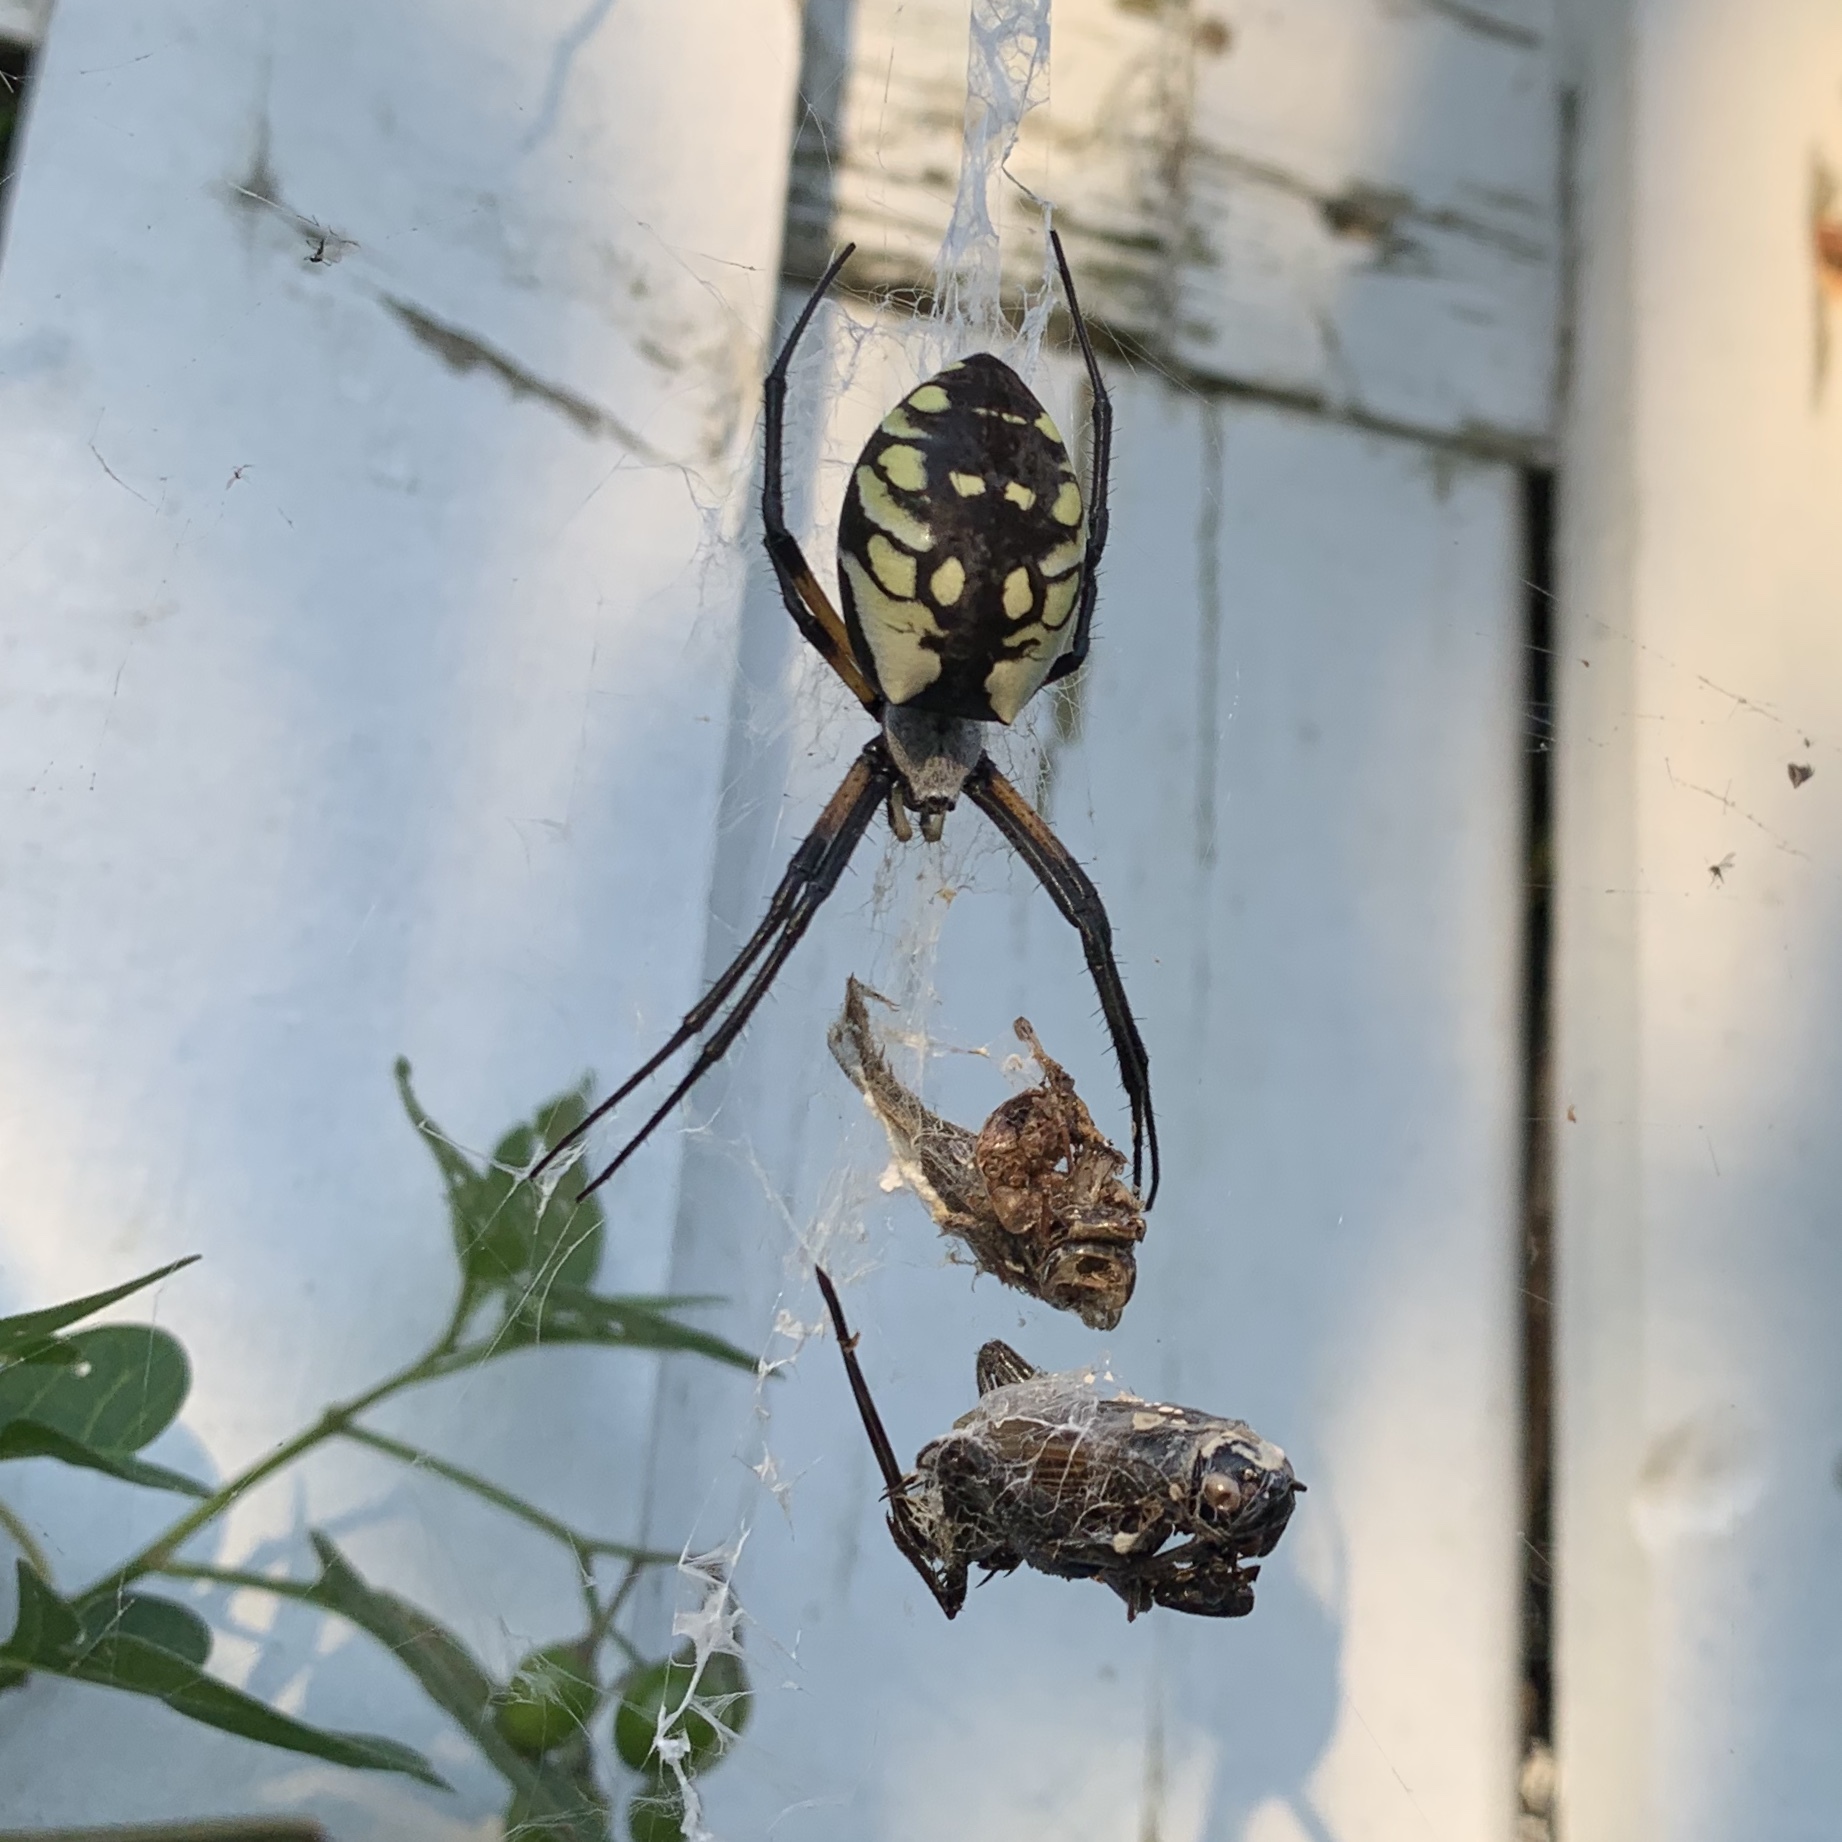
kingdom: Animalia
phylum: Arthropoda
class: Arachnida
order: Araneae
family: Araneidae
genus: Argiope
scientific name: Argiope aurantia
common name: Orb weavers
